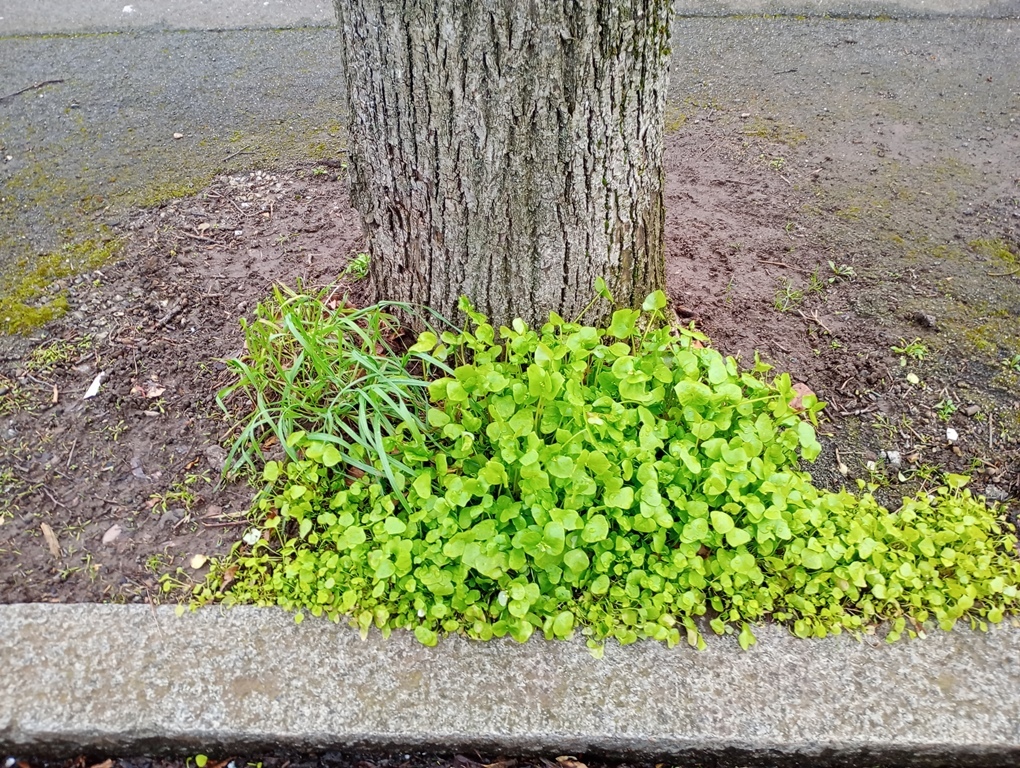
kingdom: Plantae
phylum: Tracheophyta
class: Magnoliopsida
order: Caryophyllales
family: Montiaceae
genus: Claytonia
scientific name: Claytonia perfoliata
